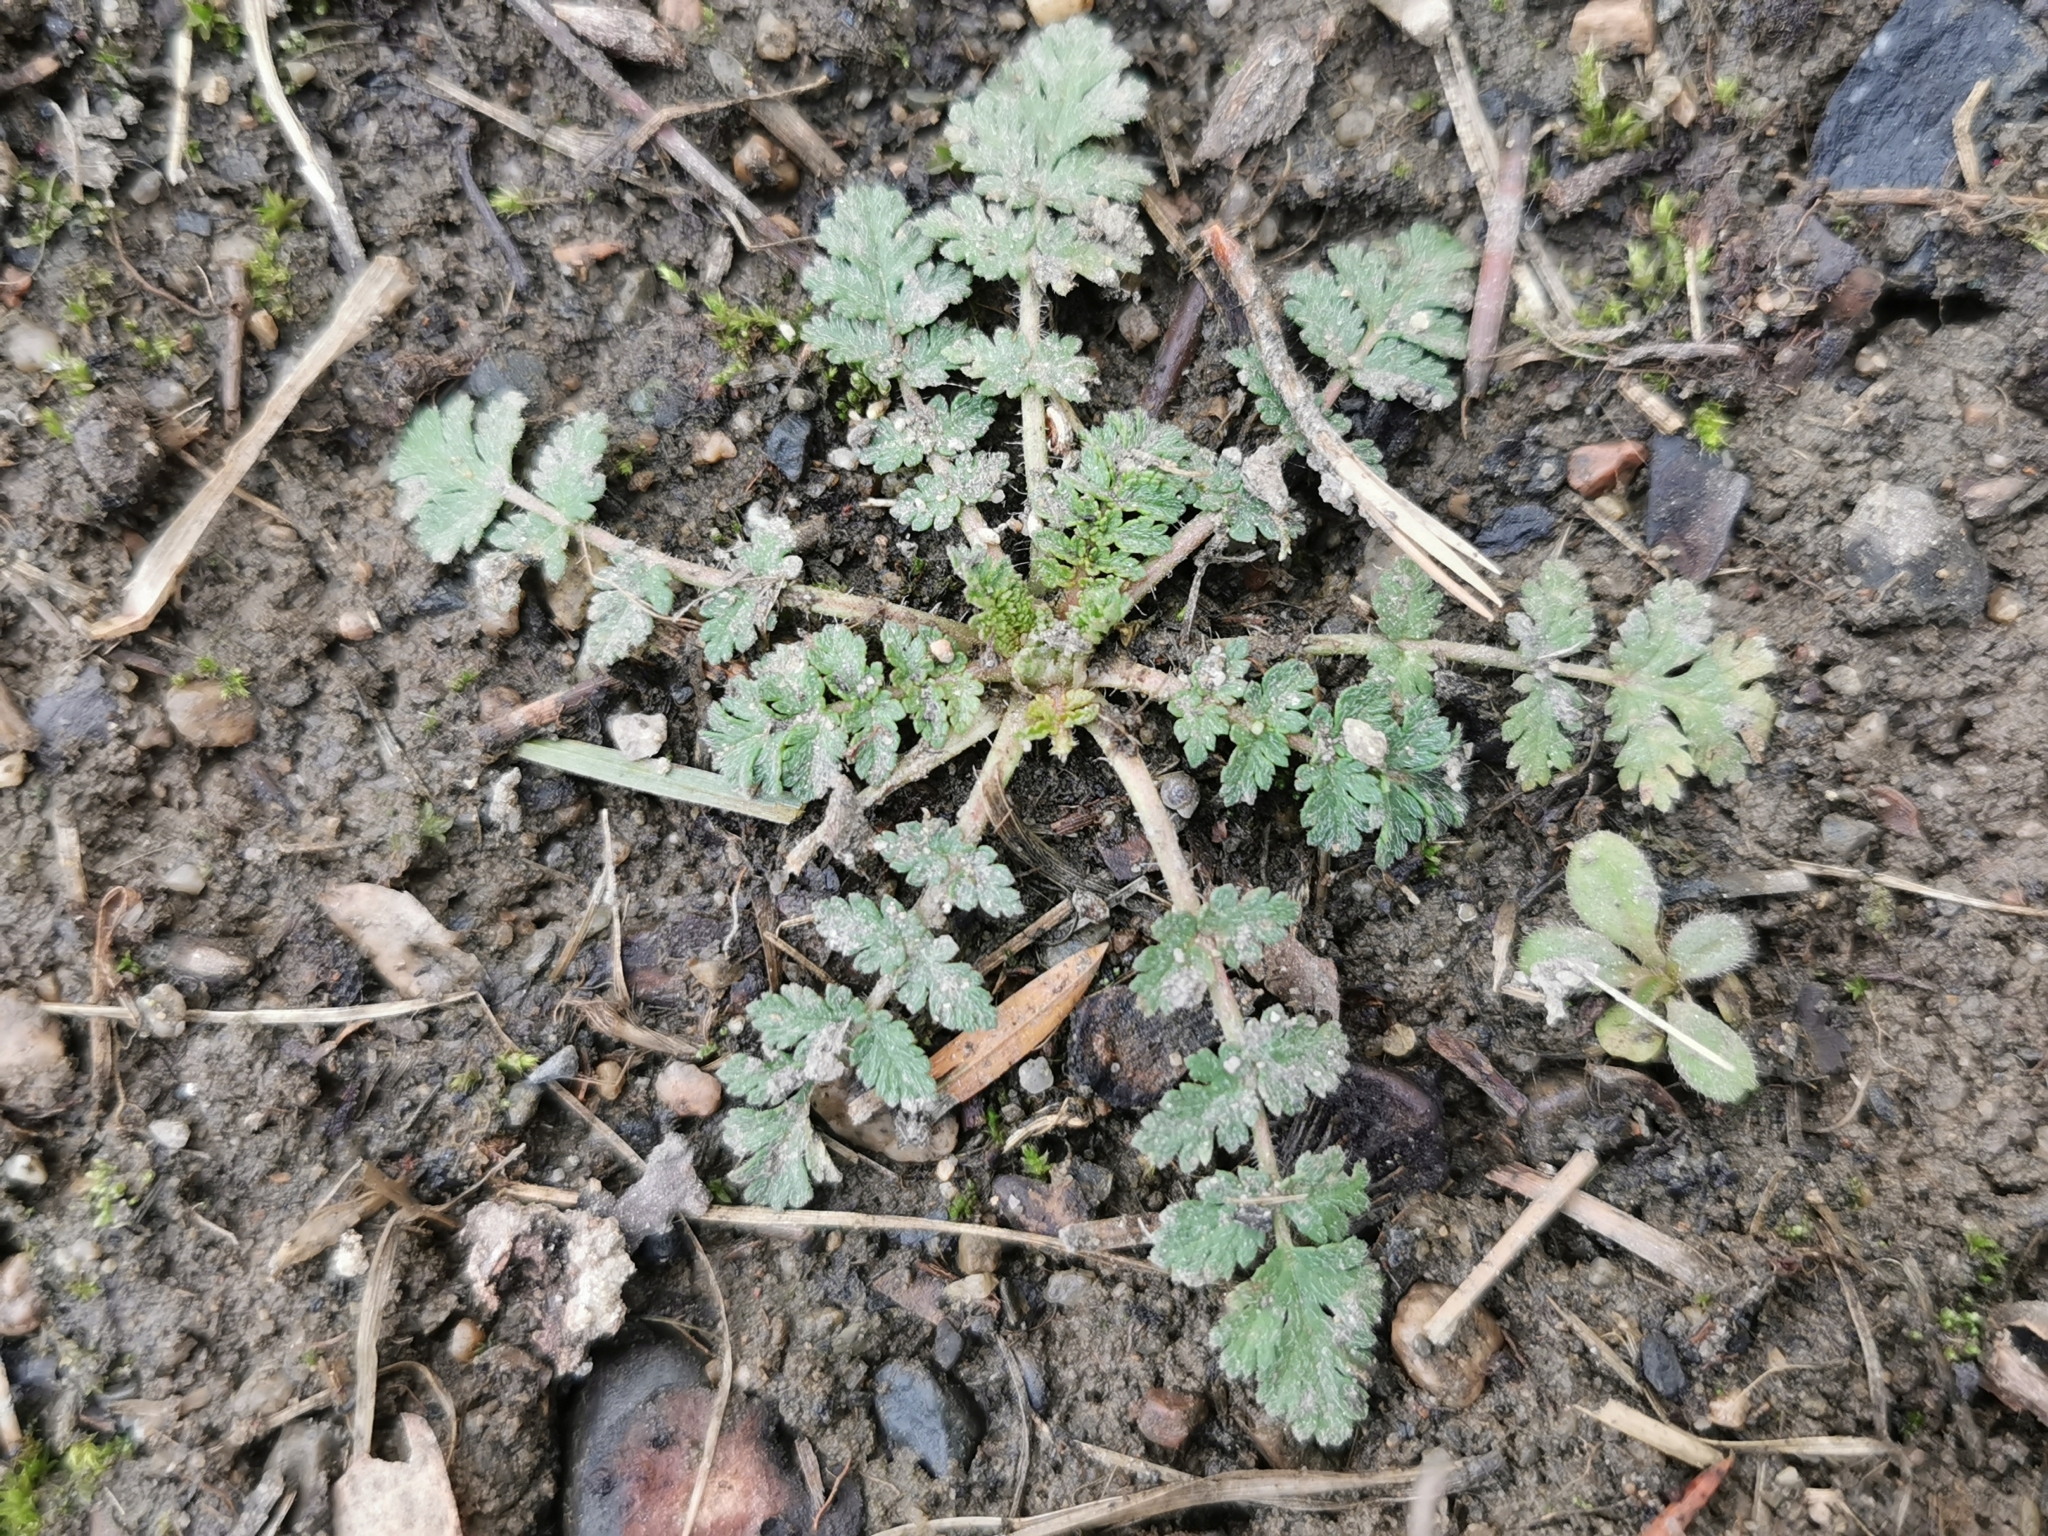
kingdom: Plantae
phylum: Tracheophyta
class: Magnoliopsida
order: Geraniales
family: Geraniaceae
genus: Erodium
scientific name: Erodium cicutarium
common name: Common stork's-bill
